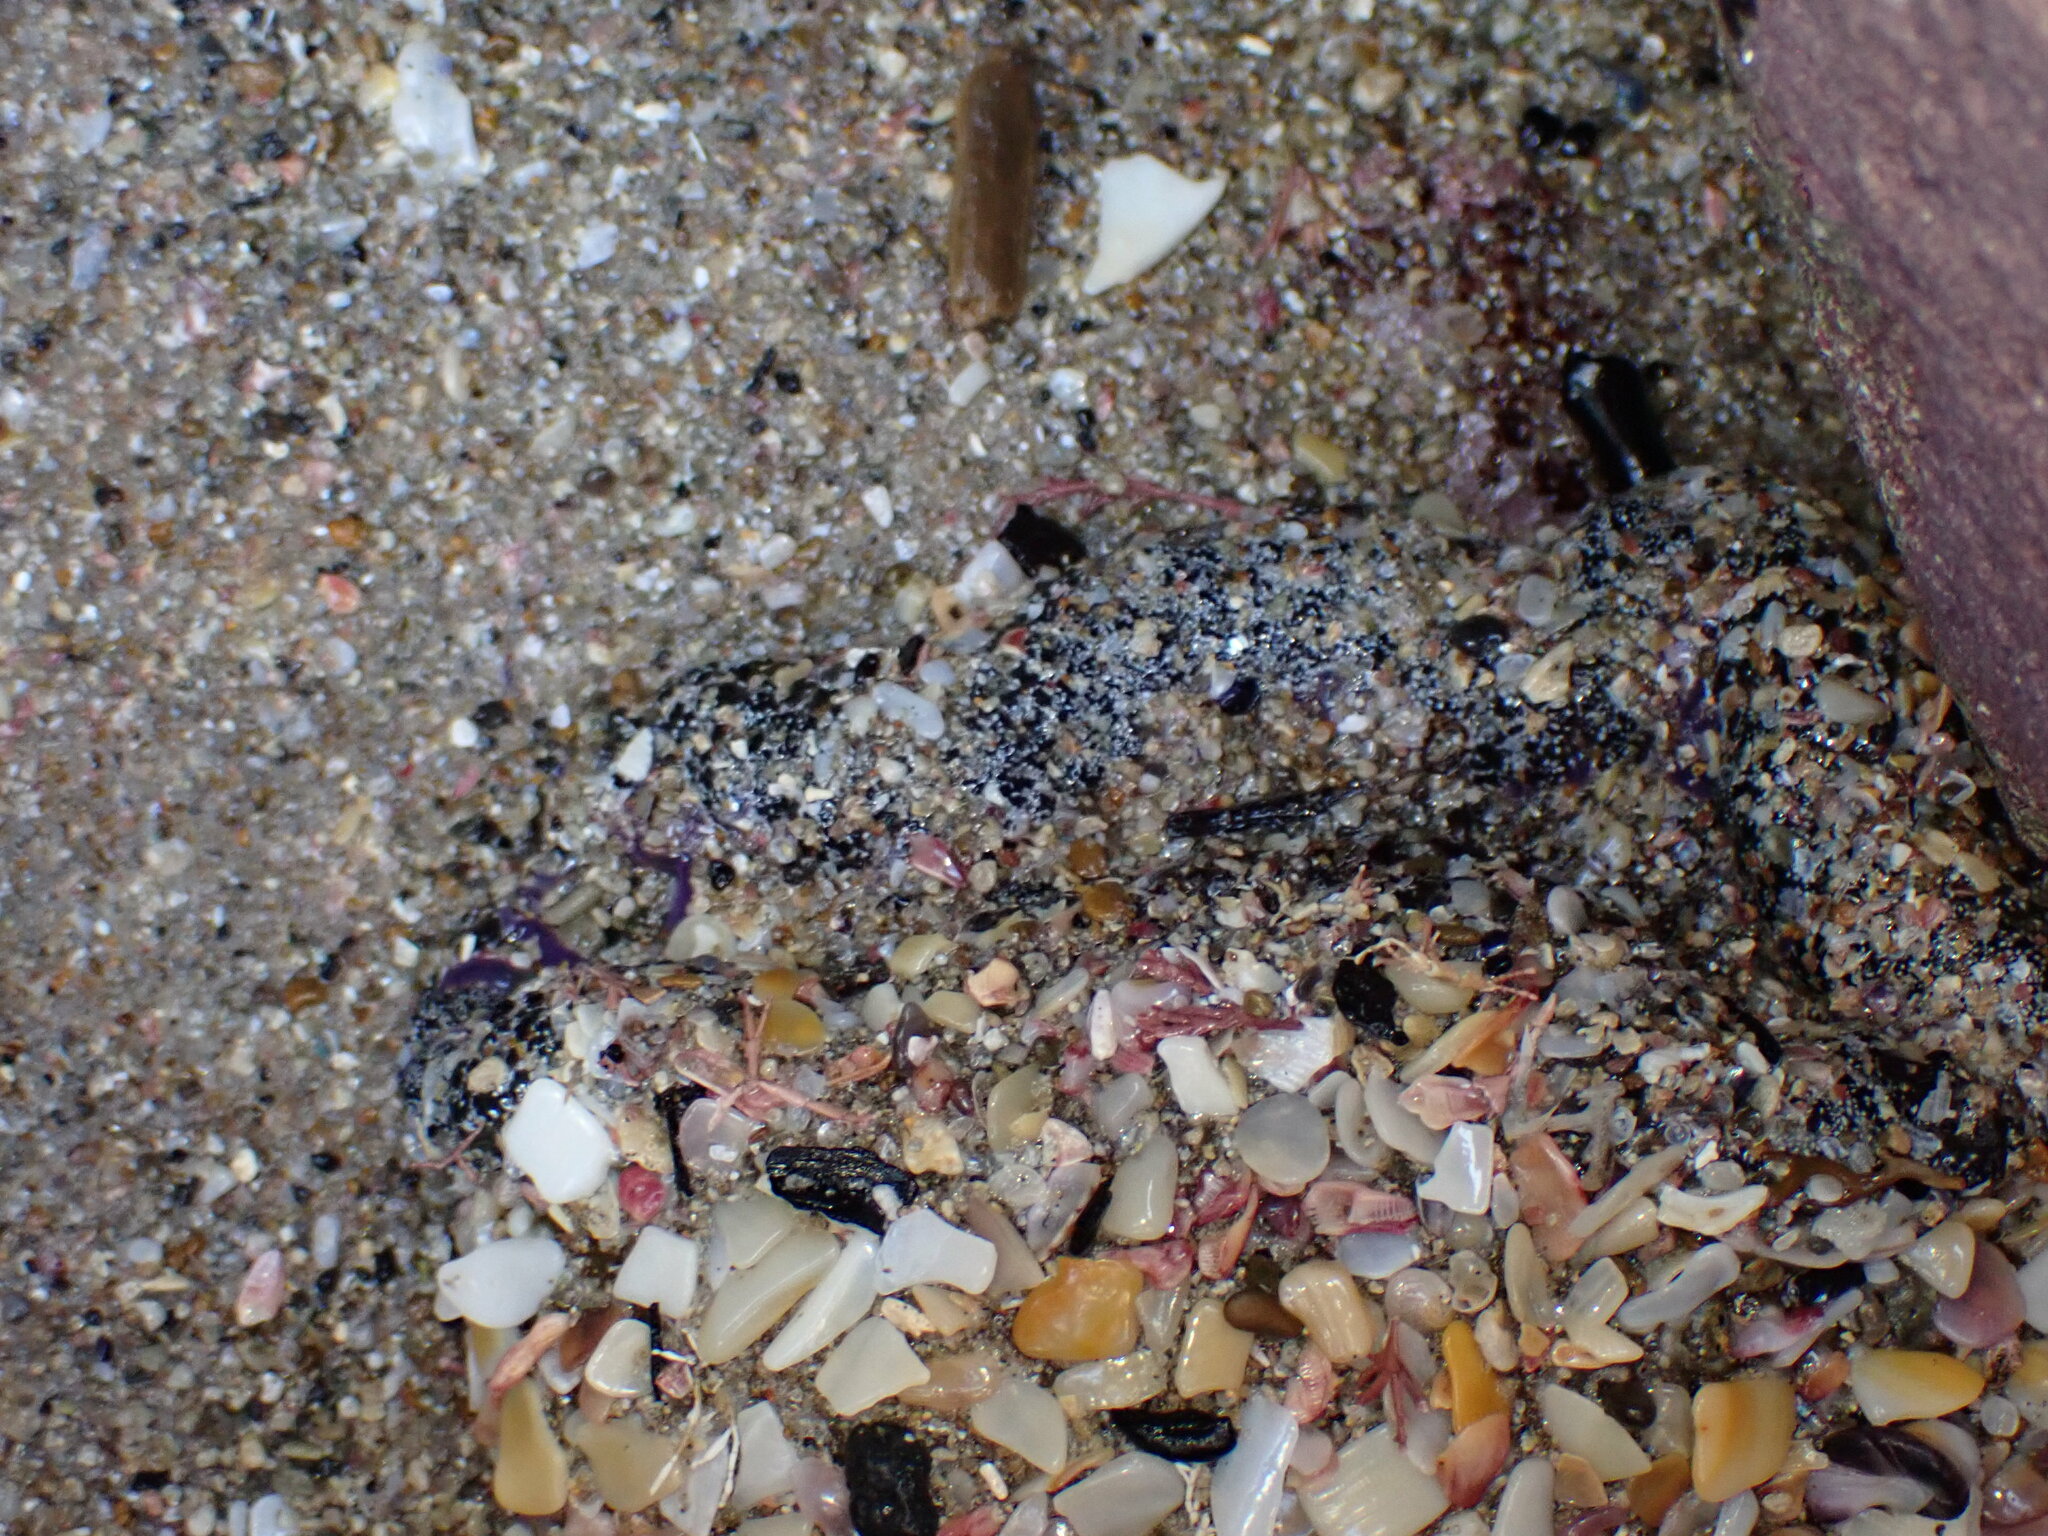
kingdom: Animalia
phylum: Cnidaria
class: Anthozoa
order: Actiniaria
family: Actiniidae
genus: Oulactis
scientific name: Oulactis magna
